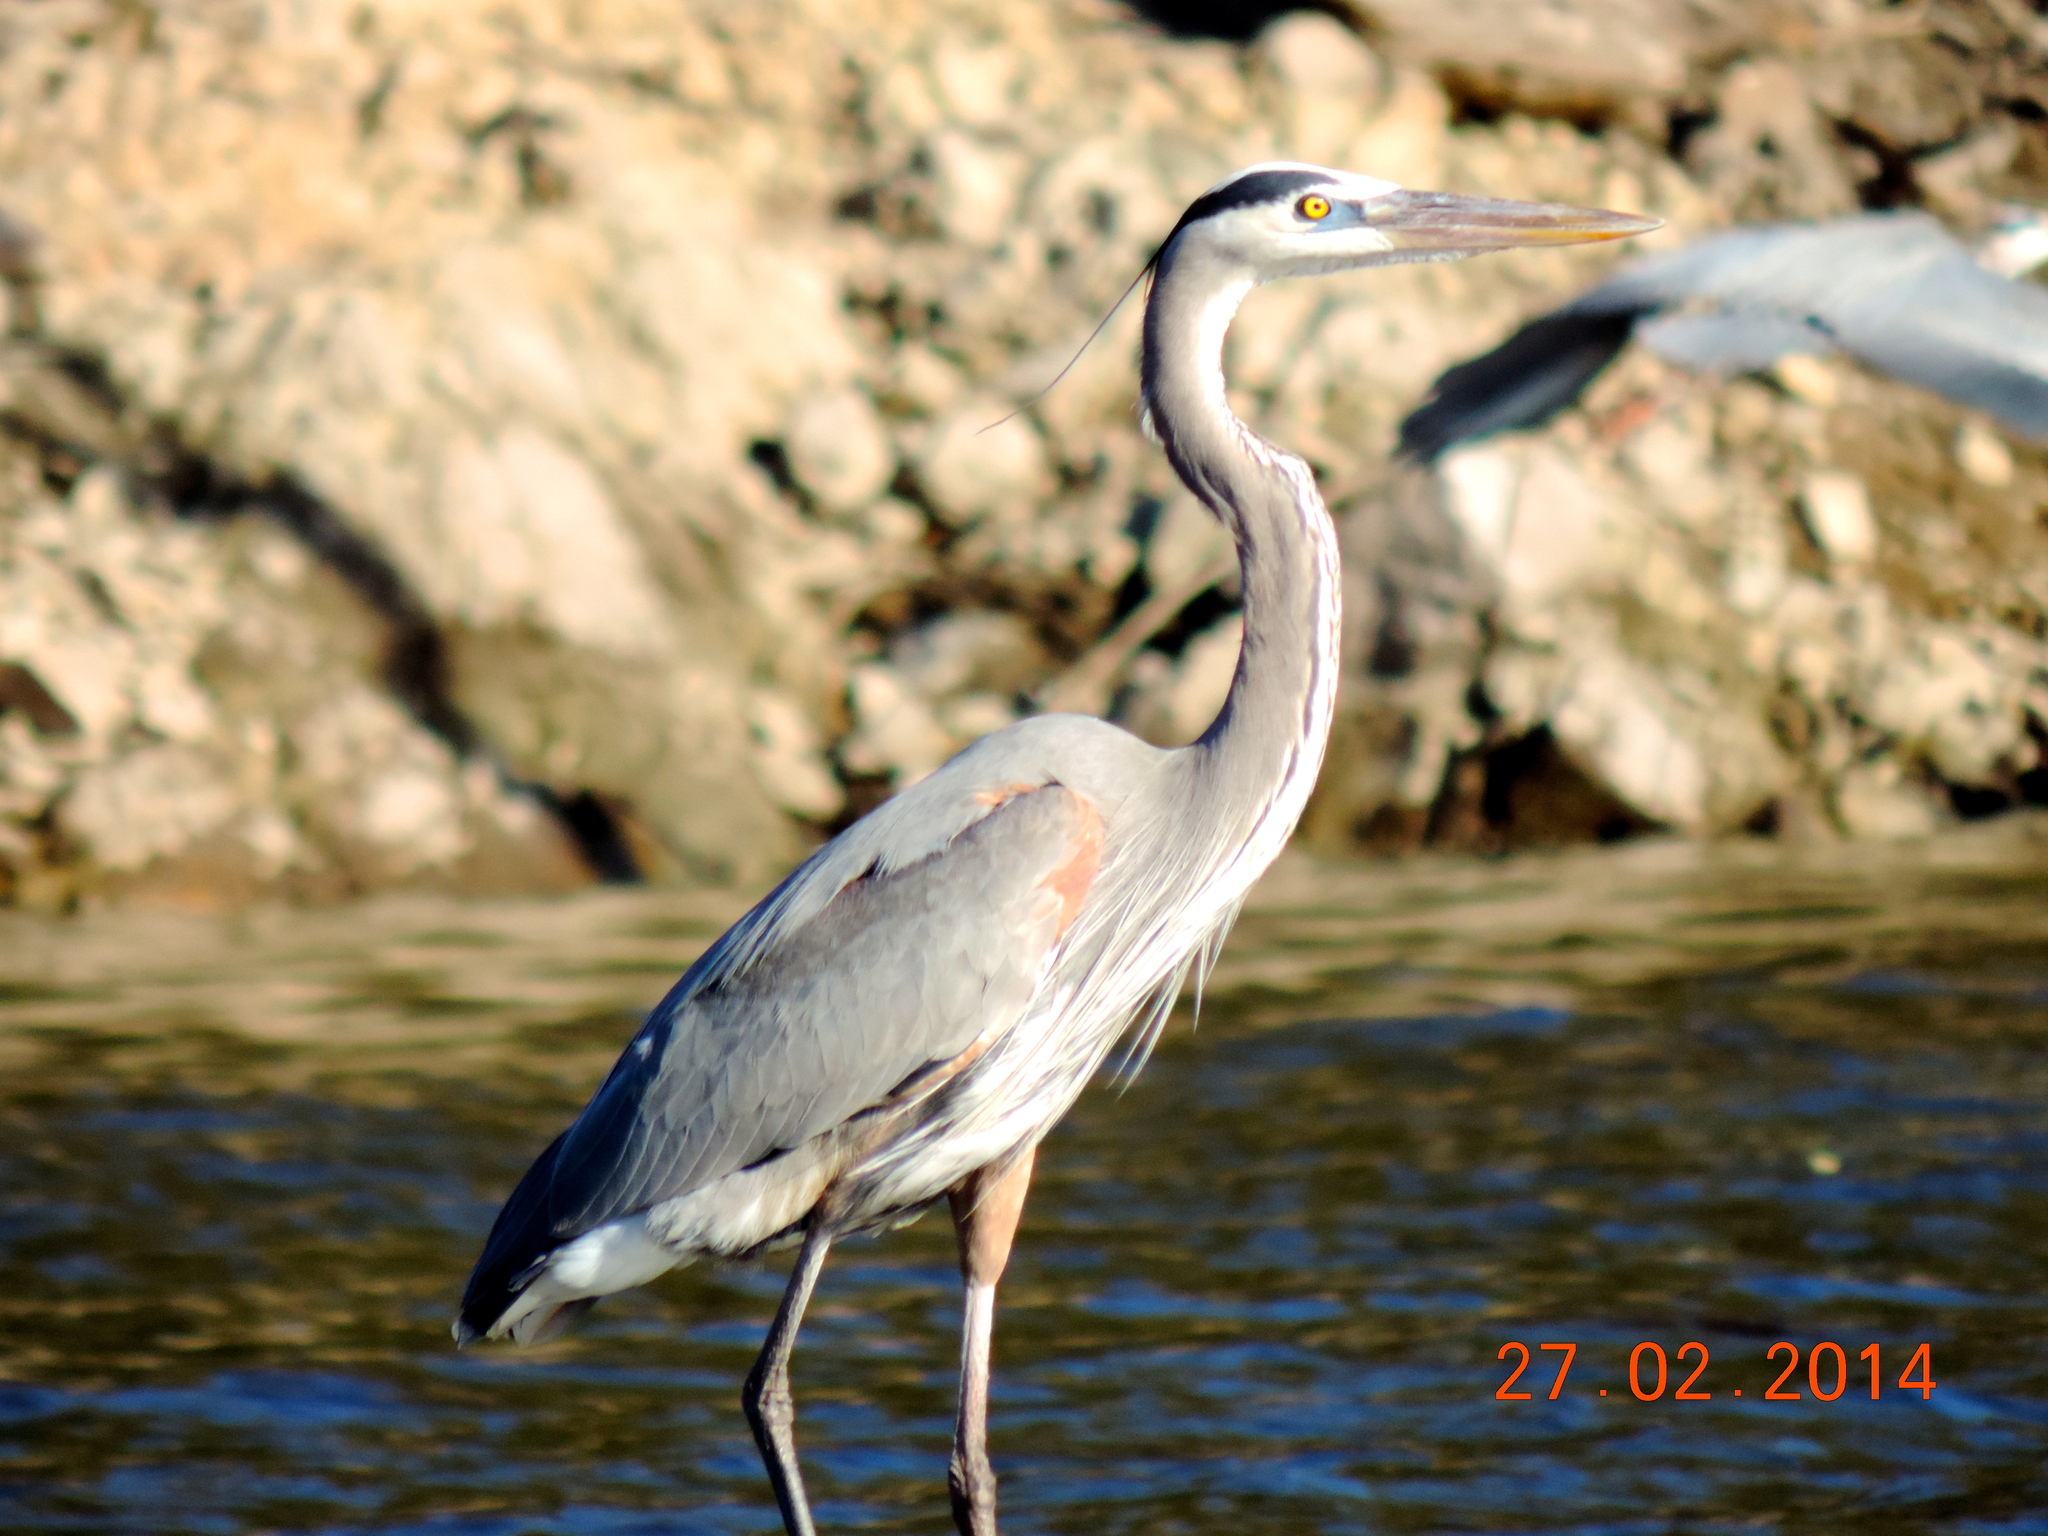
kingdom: Animalia
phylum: Chordata
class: Aves
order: Pelecaniformes
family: Ardeidae
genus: Ardea
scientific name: Ardea herodias
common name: Great blue heron
